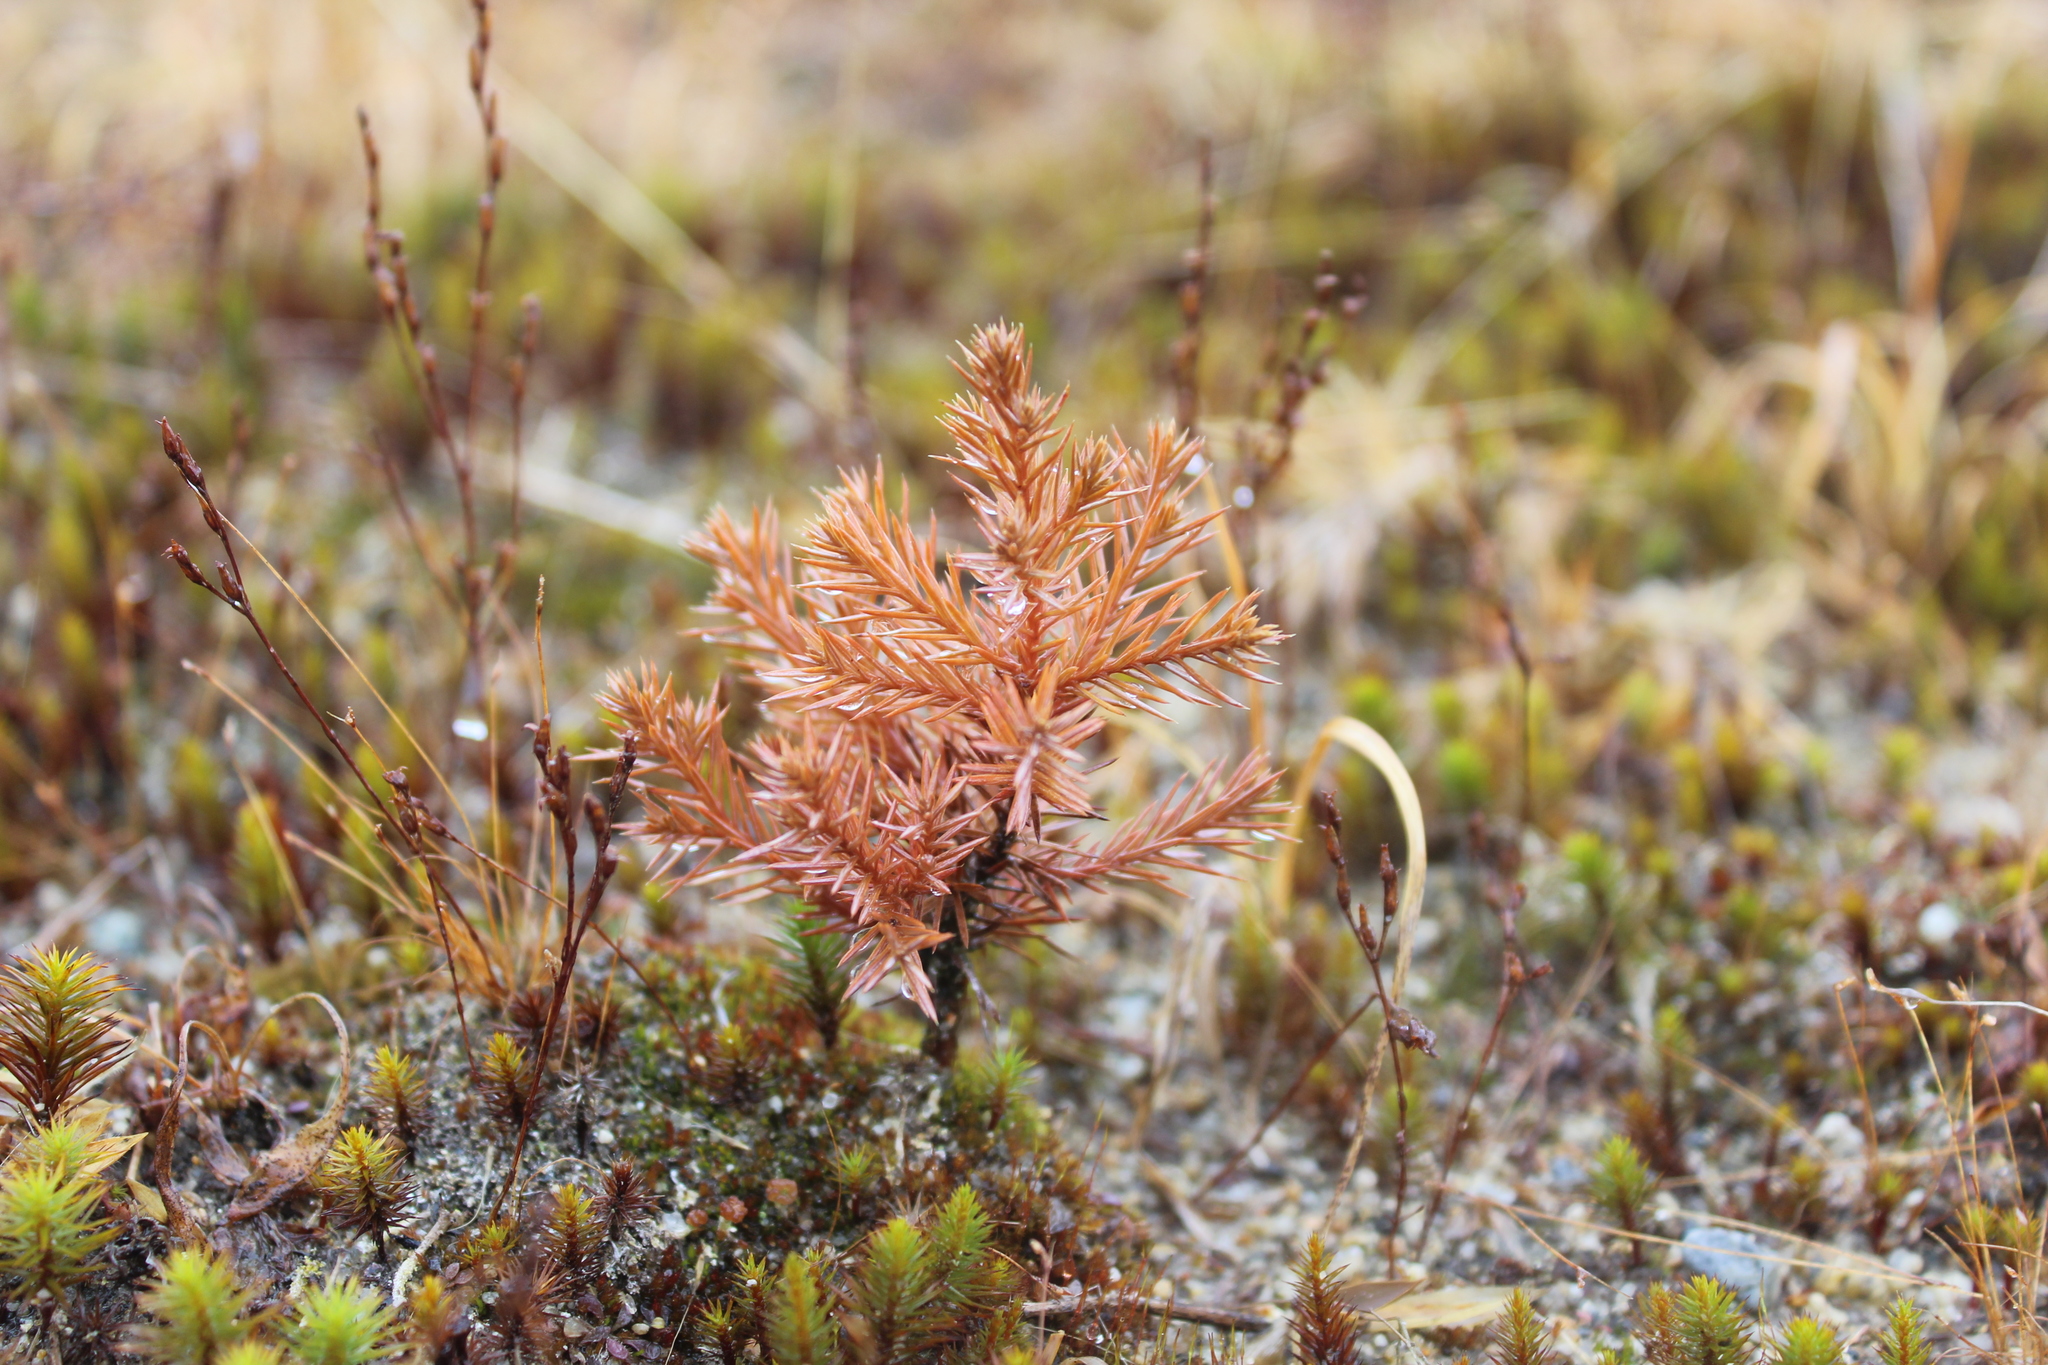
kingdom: Plantae
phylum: Tracheophyta
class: Pinopsida
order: Pinales
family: Cupressaceae
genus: Juniperus
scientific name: Juniperus virginiana
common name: Red juniper
